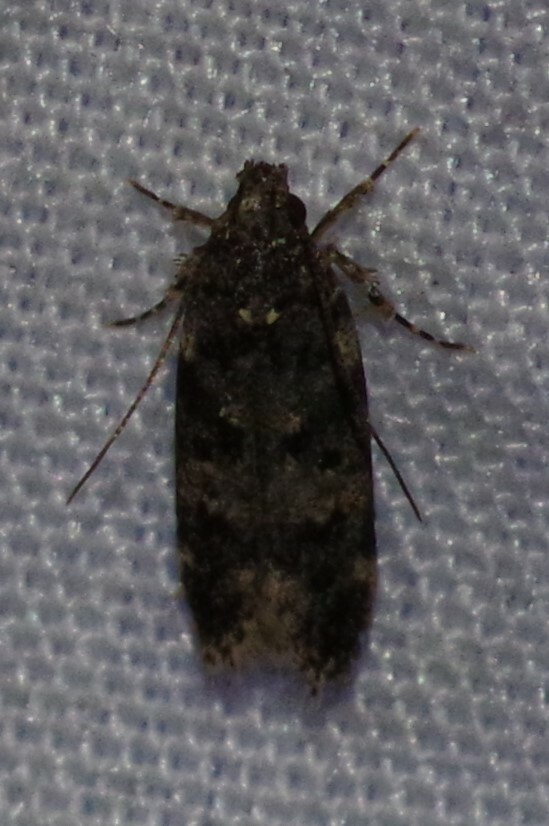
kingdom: Animalia
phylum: Arthropoda
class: Insecta
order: Lepidoptera
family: Gelechiidae
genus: Chionodes
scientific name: Chionodes
